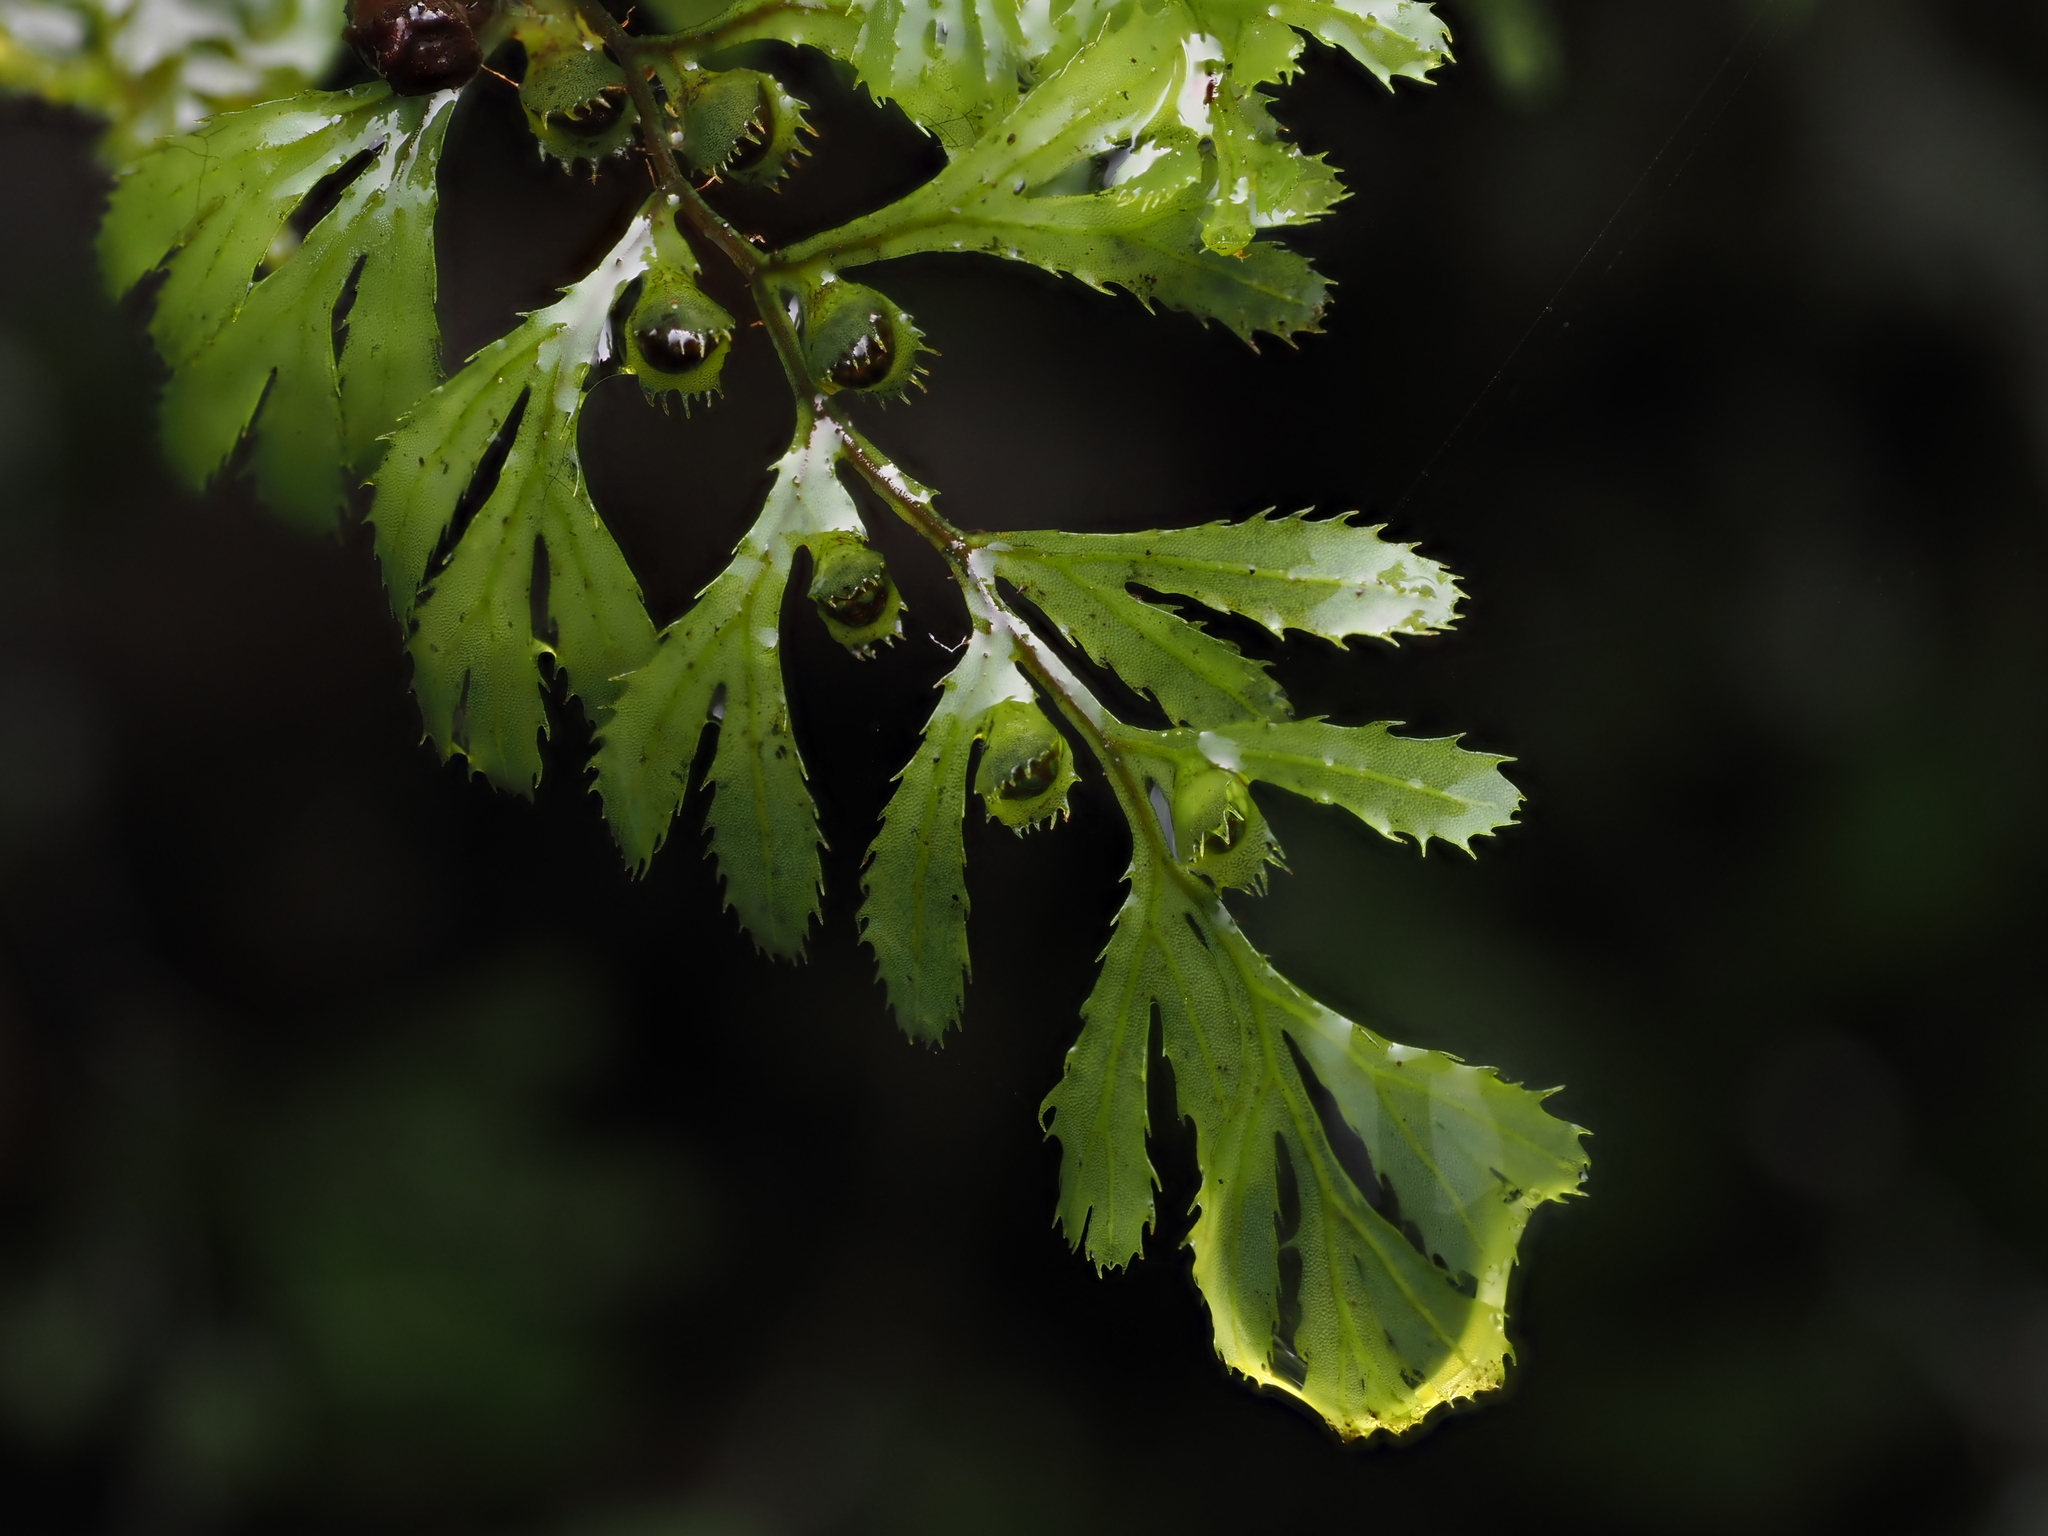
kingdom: Plantae
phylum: Tracheophyta
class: Polypodiopsida
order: Hymenophyllales
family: Hymenophyllaceae
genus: Hymenophyllum
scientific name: Hymenophyllum revolutum
